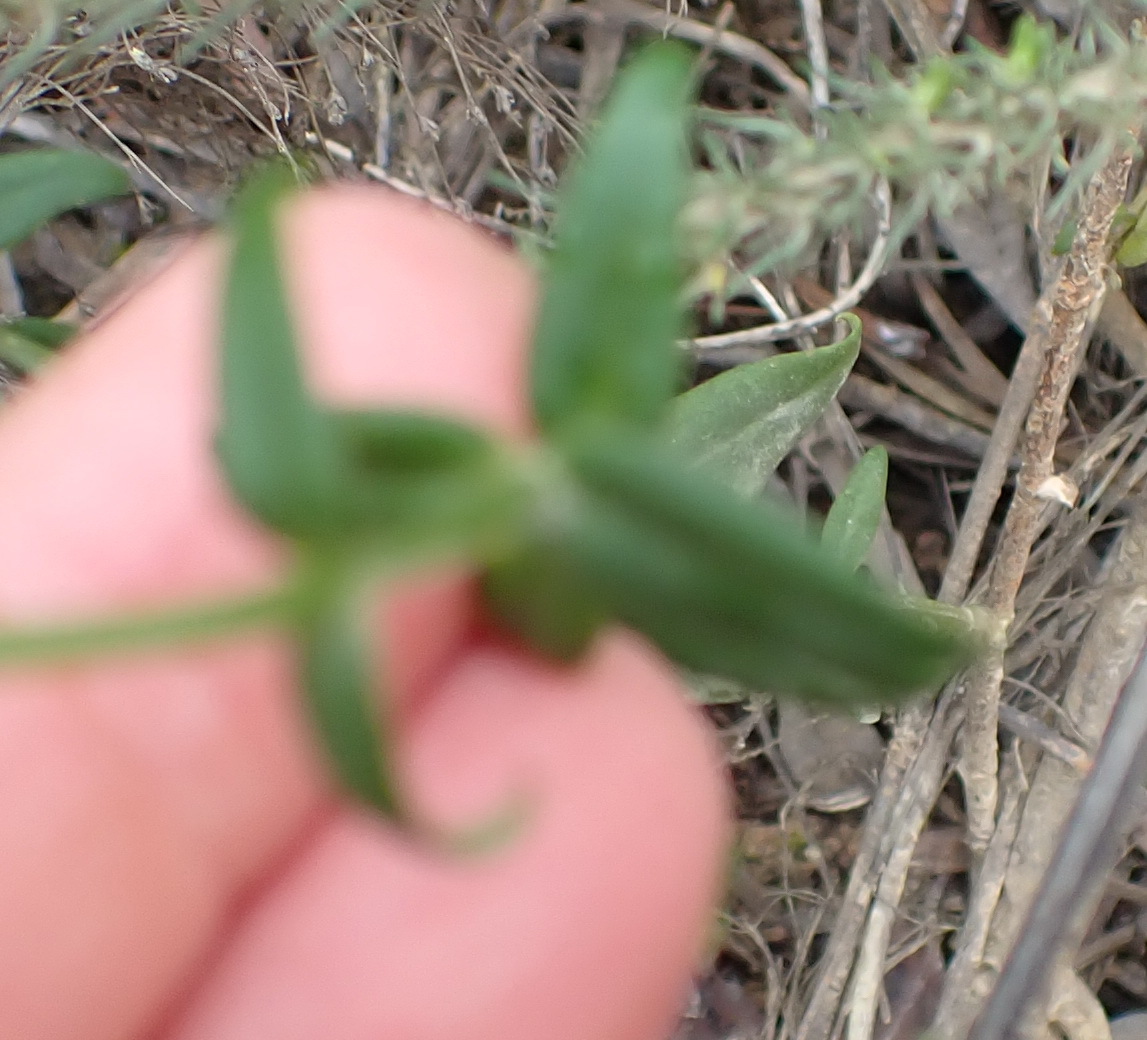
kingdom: Plantae
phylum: Tracheophyta
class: Magnoliopsida
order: Gentianales
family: Gentianaceae
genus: Chironia
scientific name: Chironia tetragona
